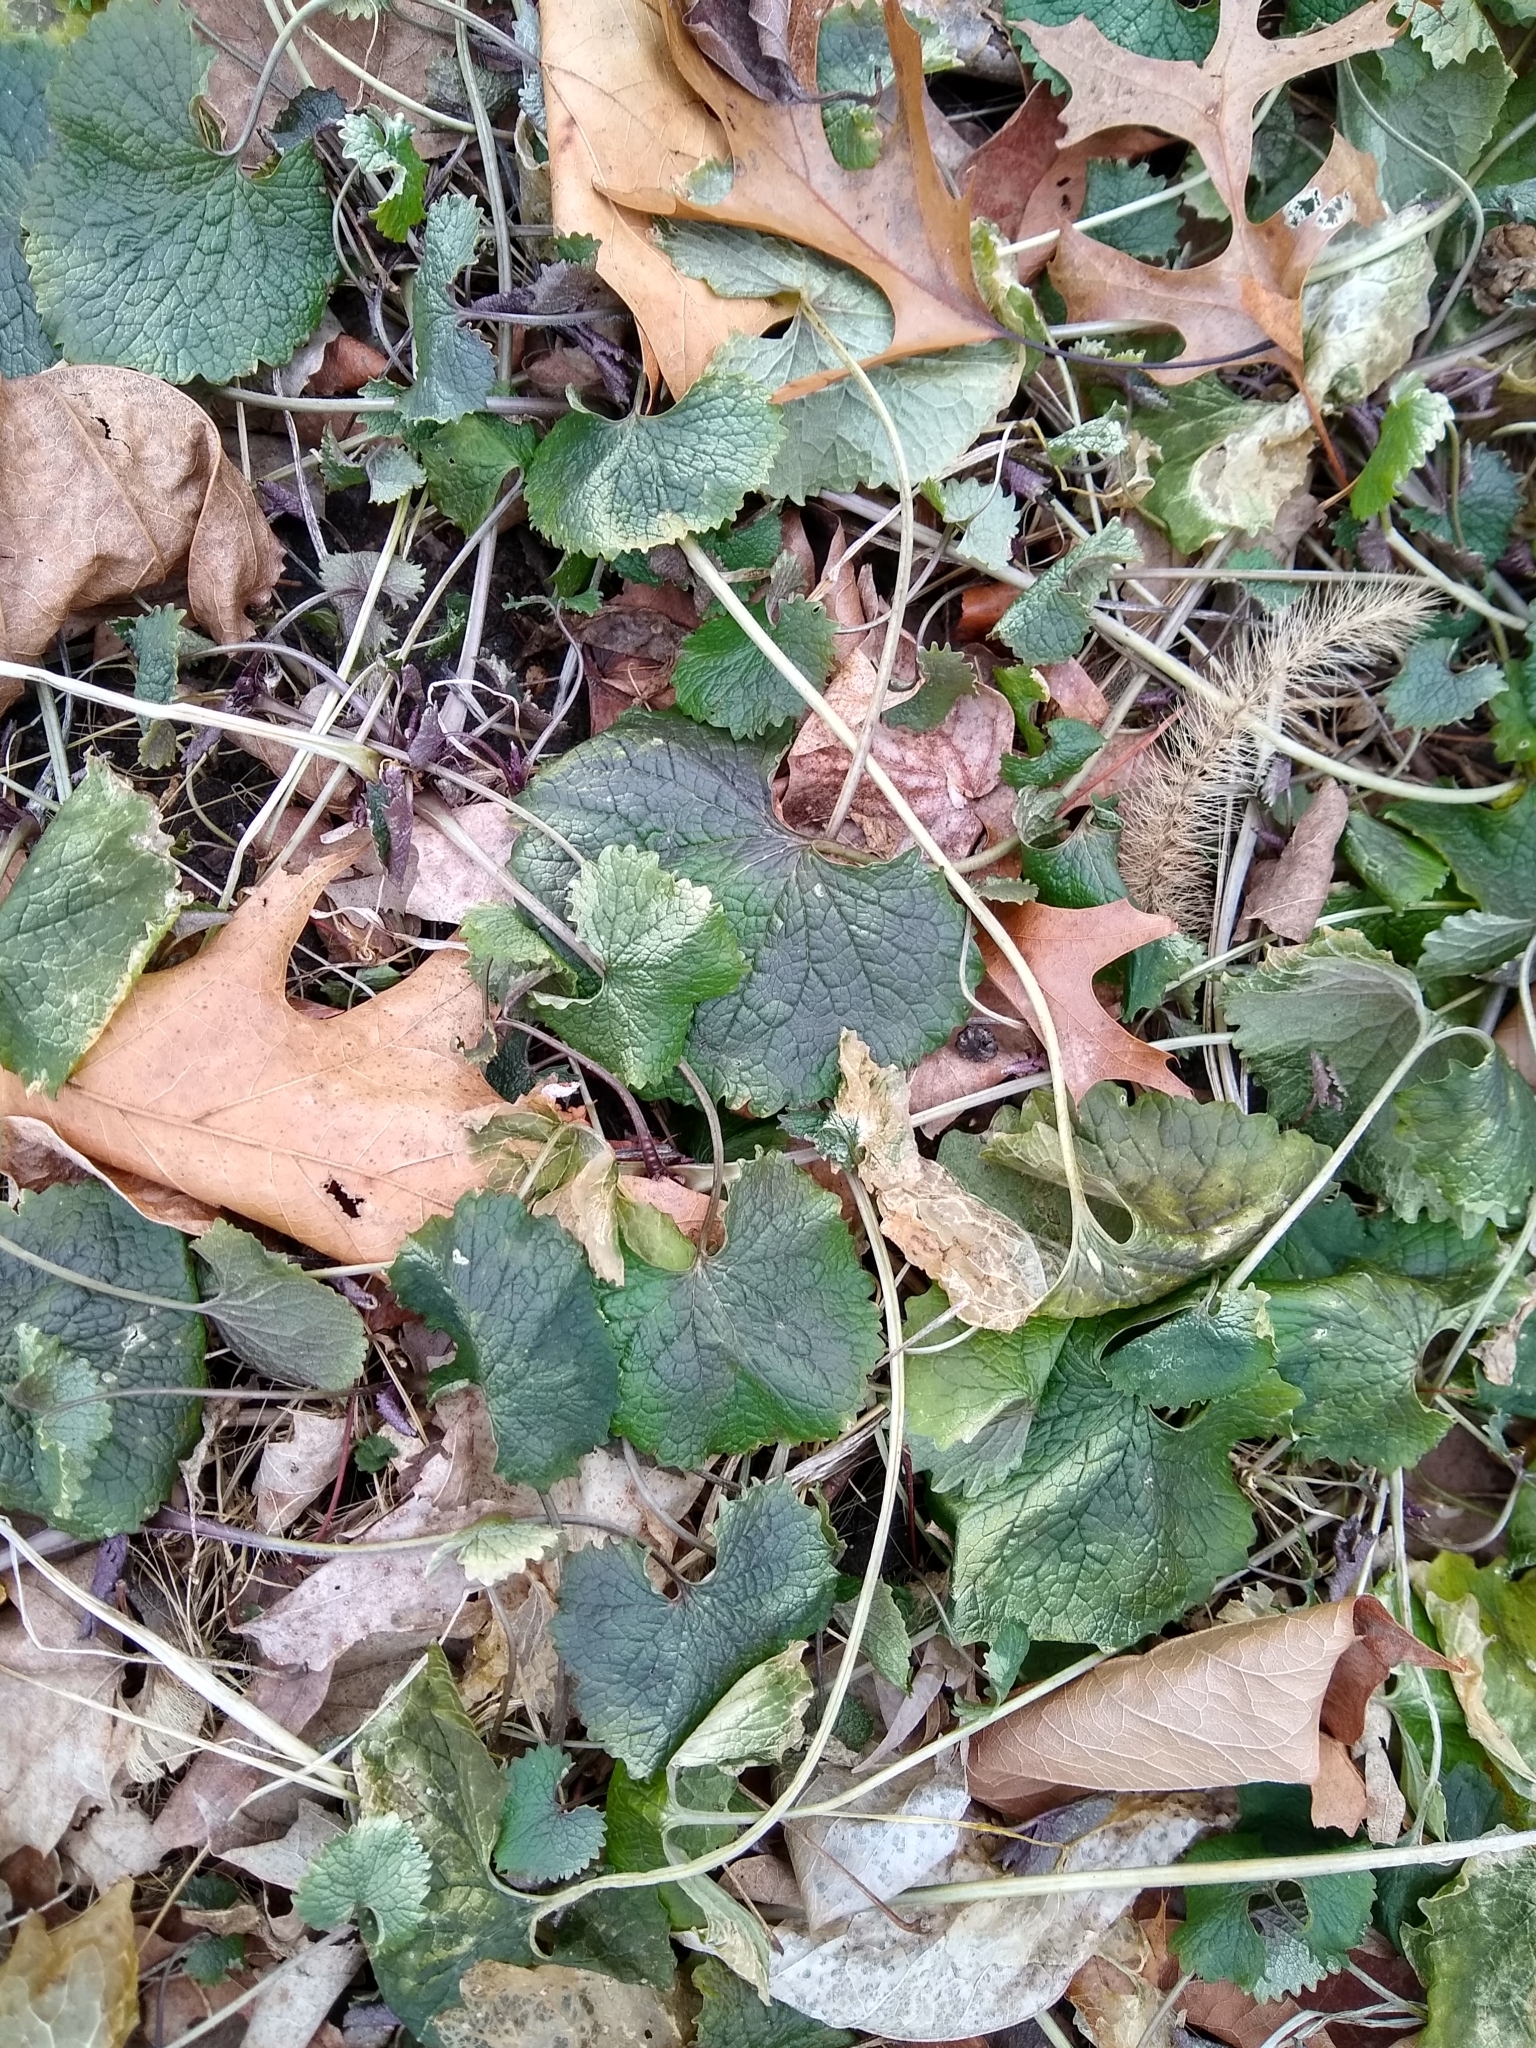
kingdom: Plantae
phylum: Tracheophyta
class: Magnoliopsida
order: Brassicales
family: Brassicaceae
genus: Alliaria
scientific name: Alliaria petiolata
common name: Garlic mustard
